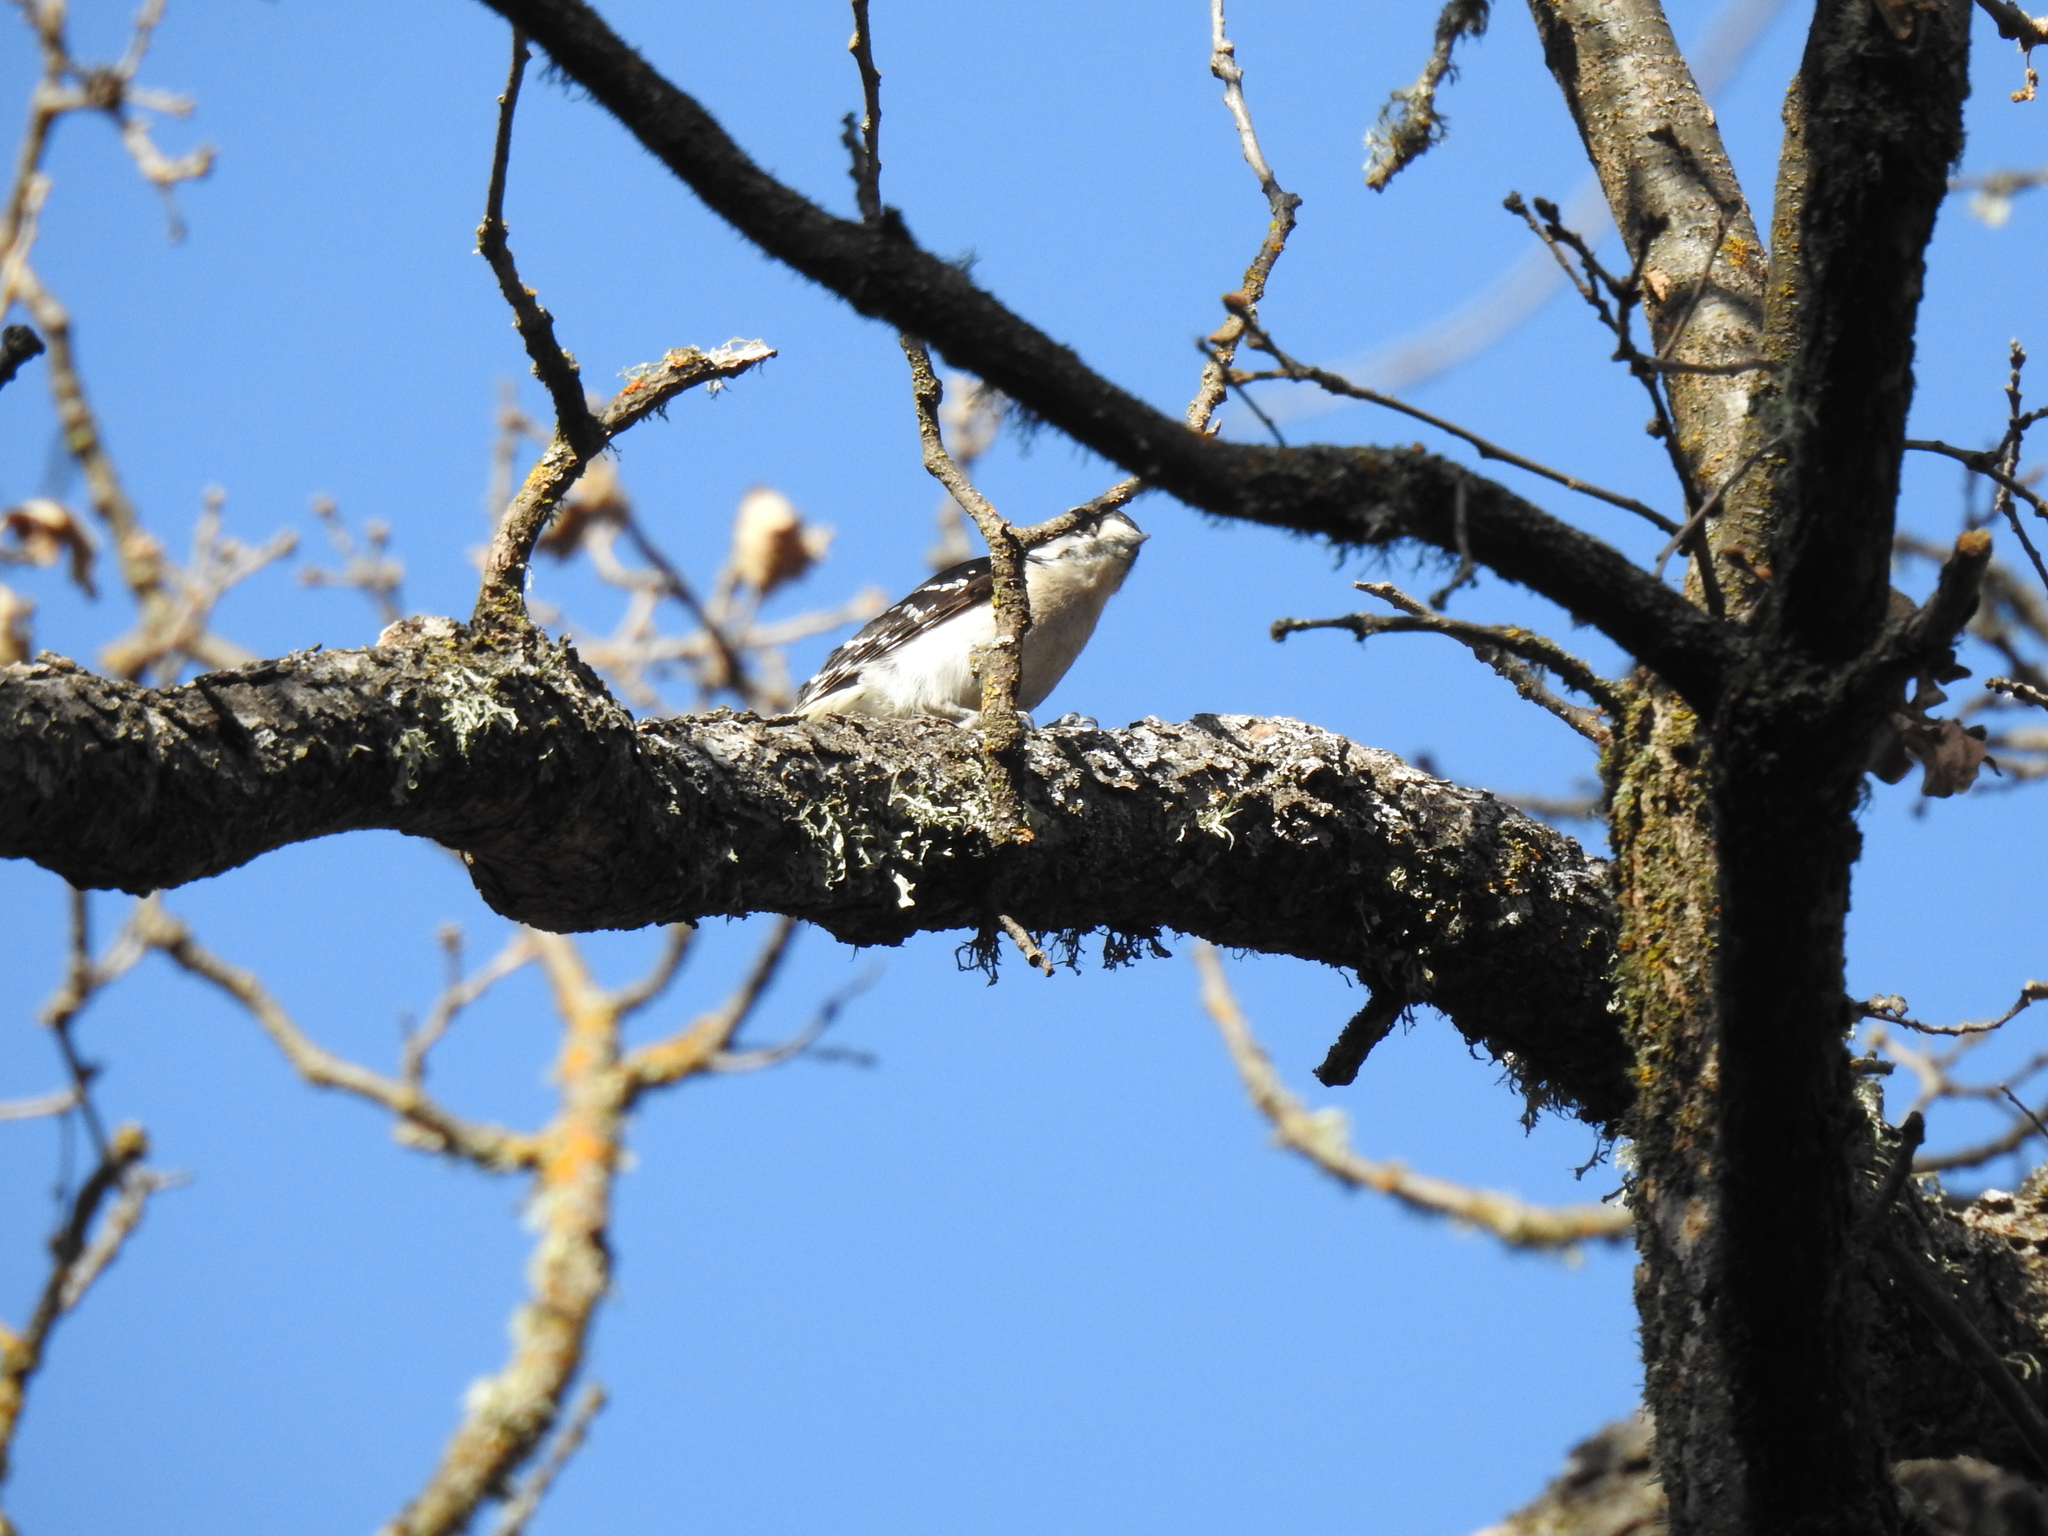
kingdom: Animalia
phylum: Chordata
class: Aves
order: Piciformes
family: Picidae
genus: Dryobates
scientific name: Dryobates pubescens
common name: Downy woodpecker
